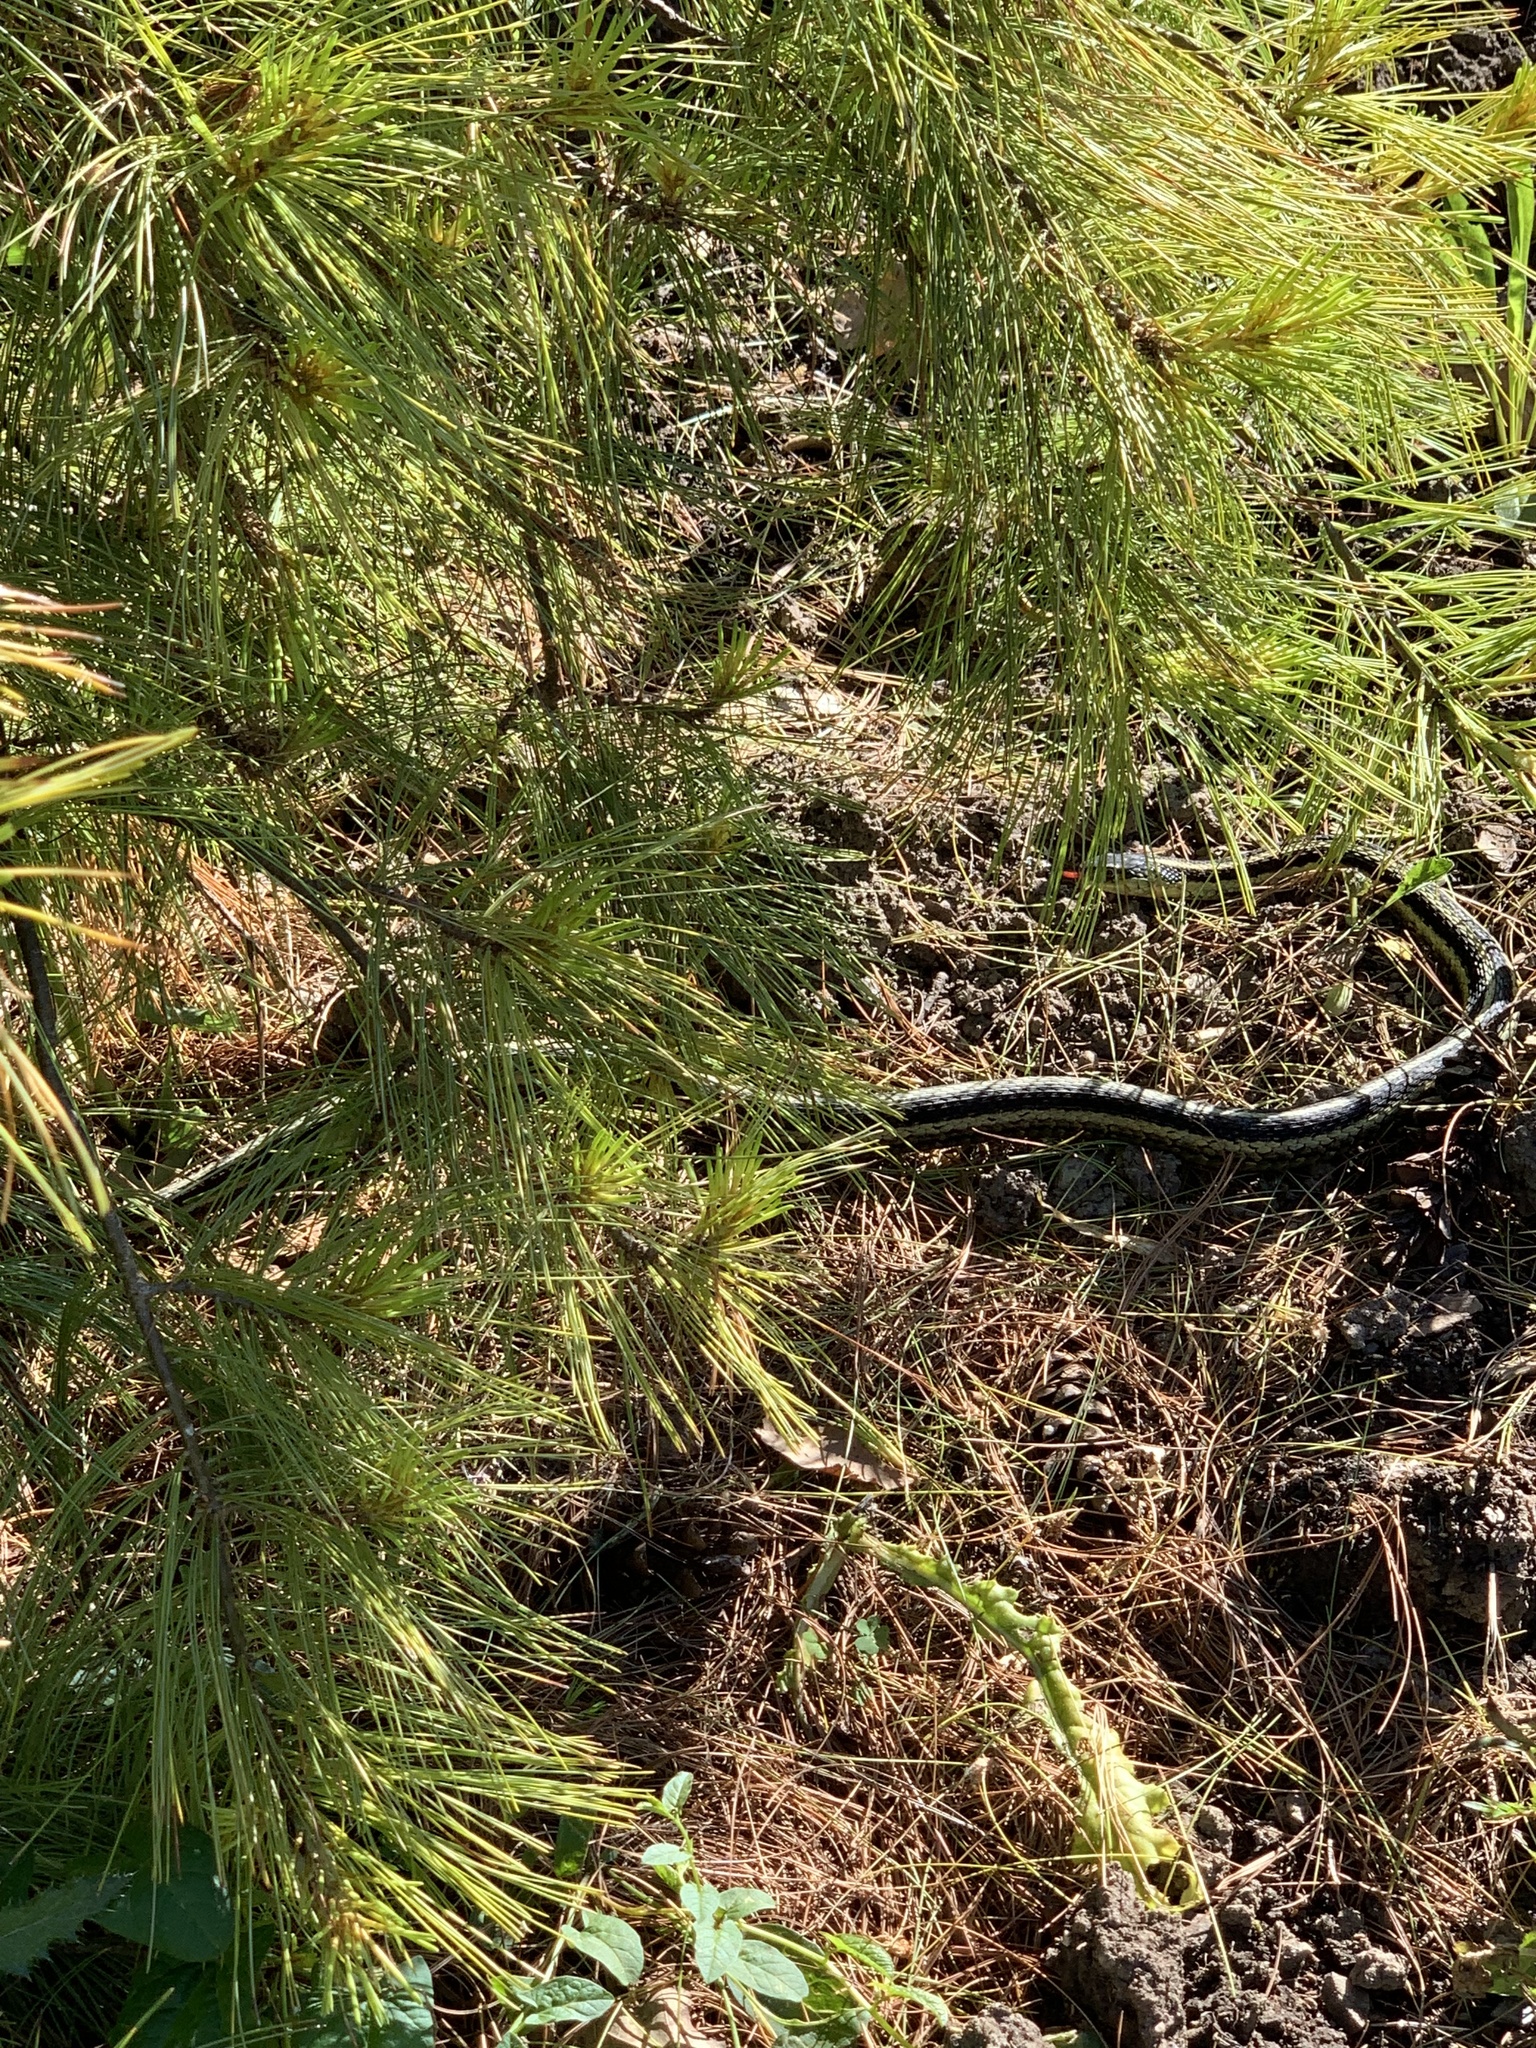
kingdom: Animalia
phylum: Chordata
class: Squamata
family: Colubridae
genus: Thamnophis
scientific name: Thamnophis sirtalis
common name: Common garter snake
